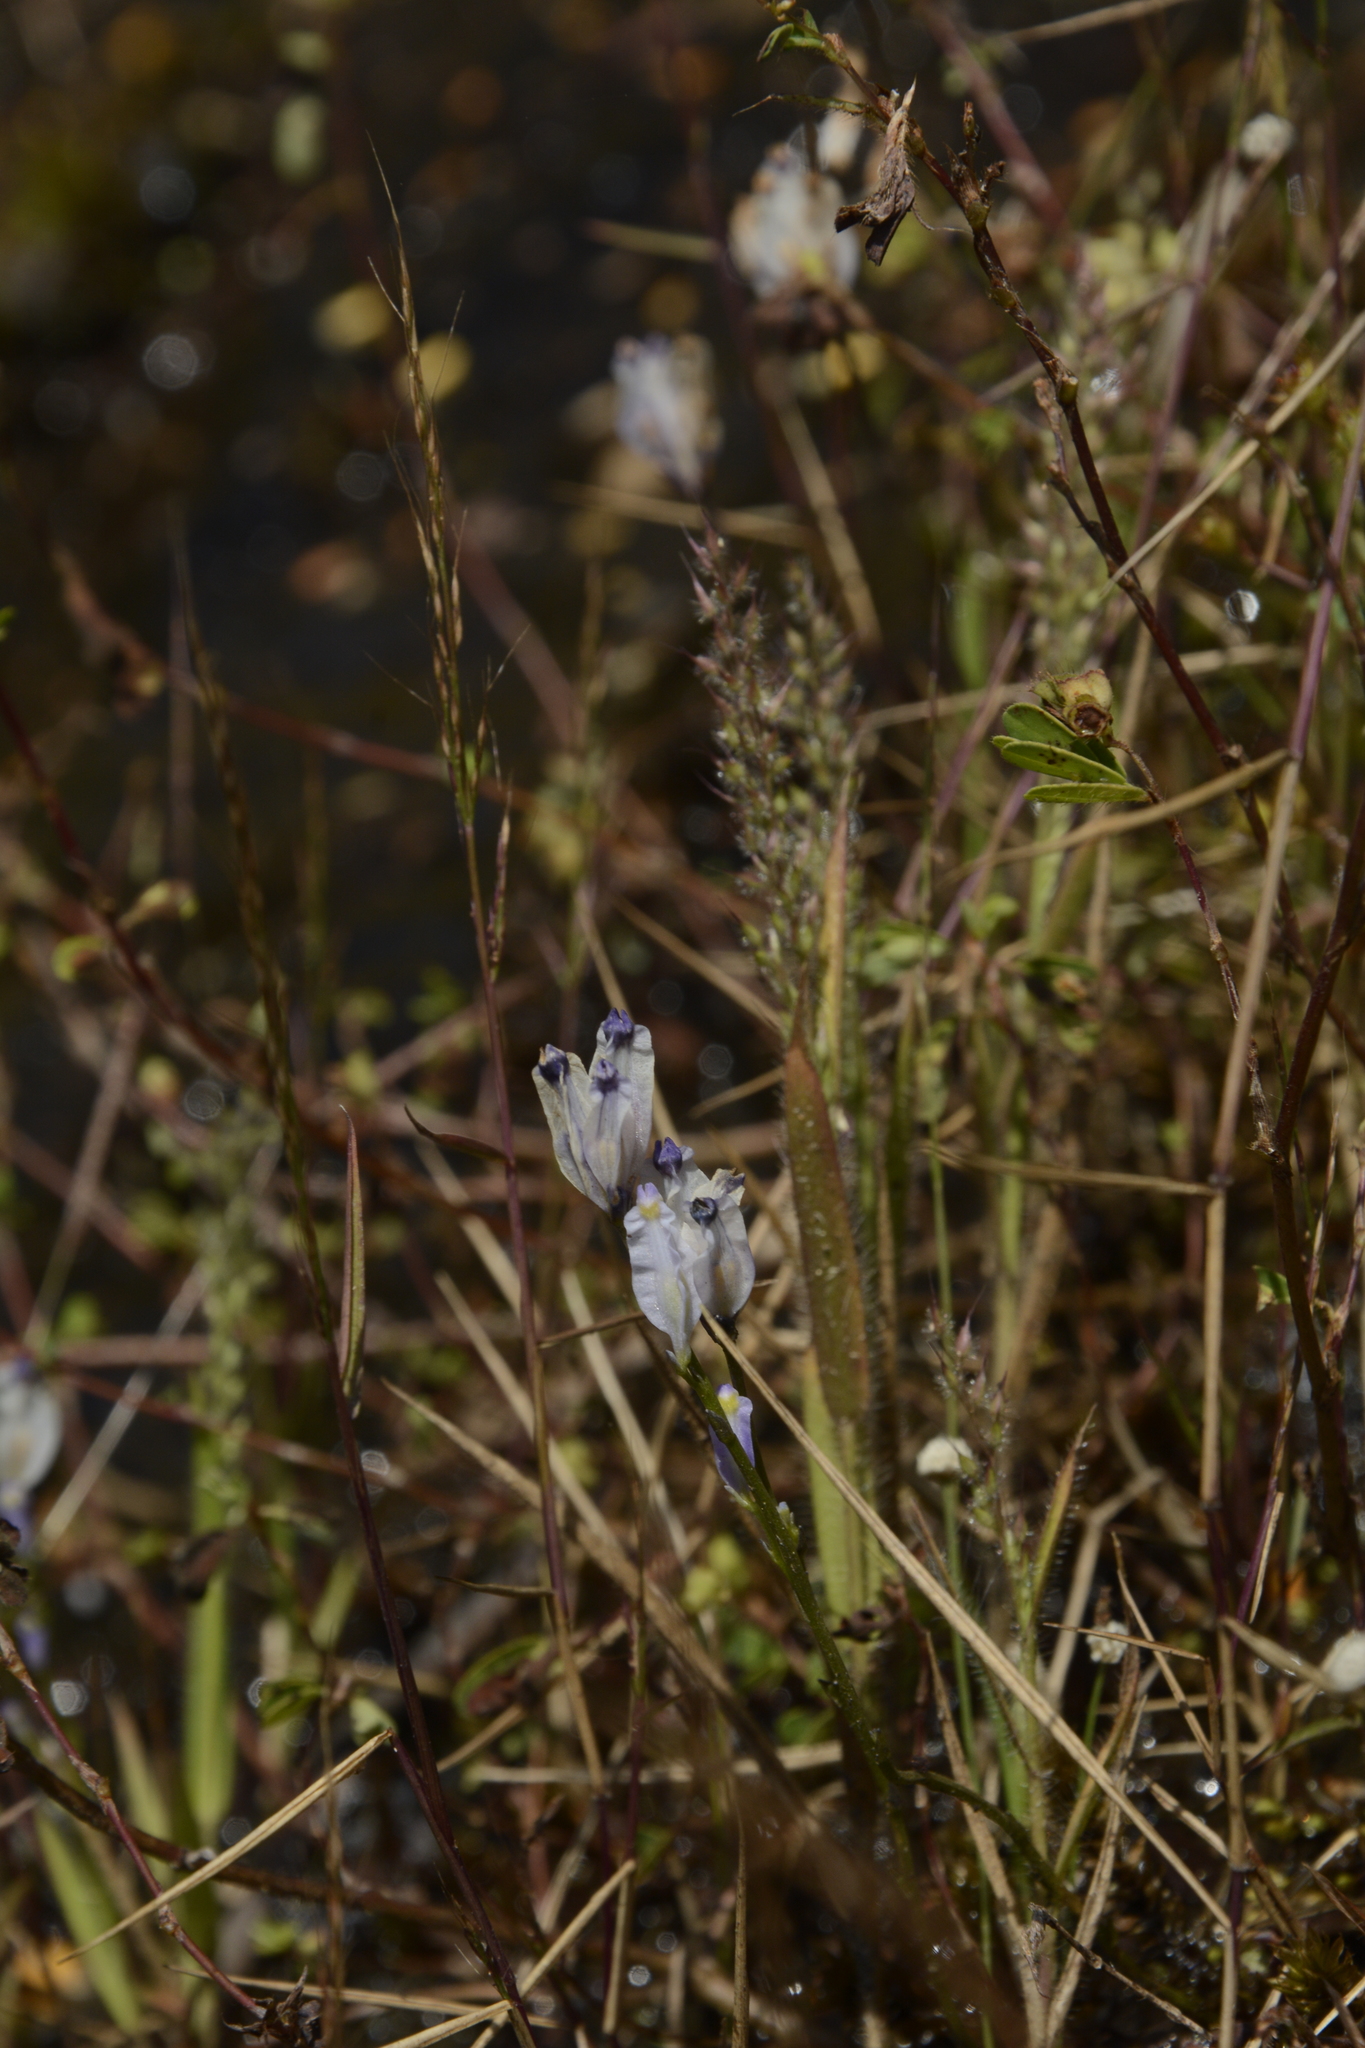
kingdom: Plantae
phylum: Tracheophyta
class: Liliopsida
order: Dioscoreales
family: Burmanniaceae
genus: Burmannia
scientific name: Burmannia coelestis
